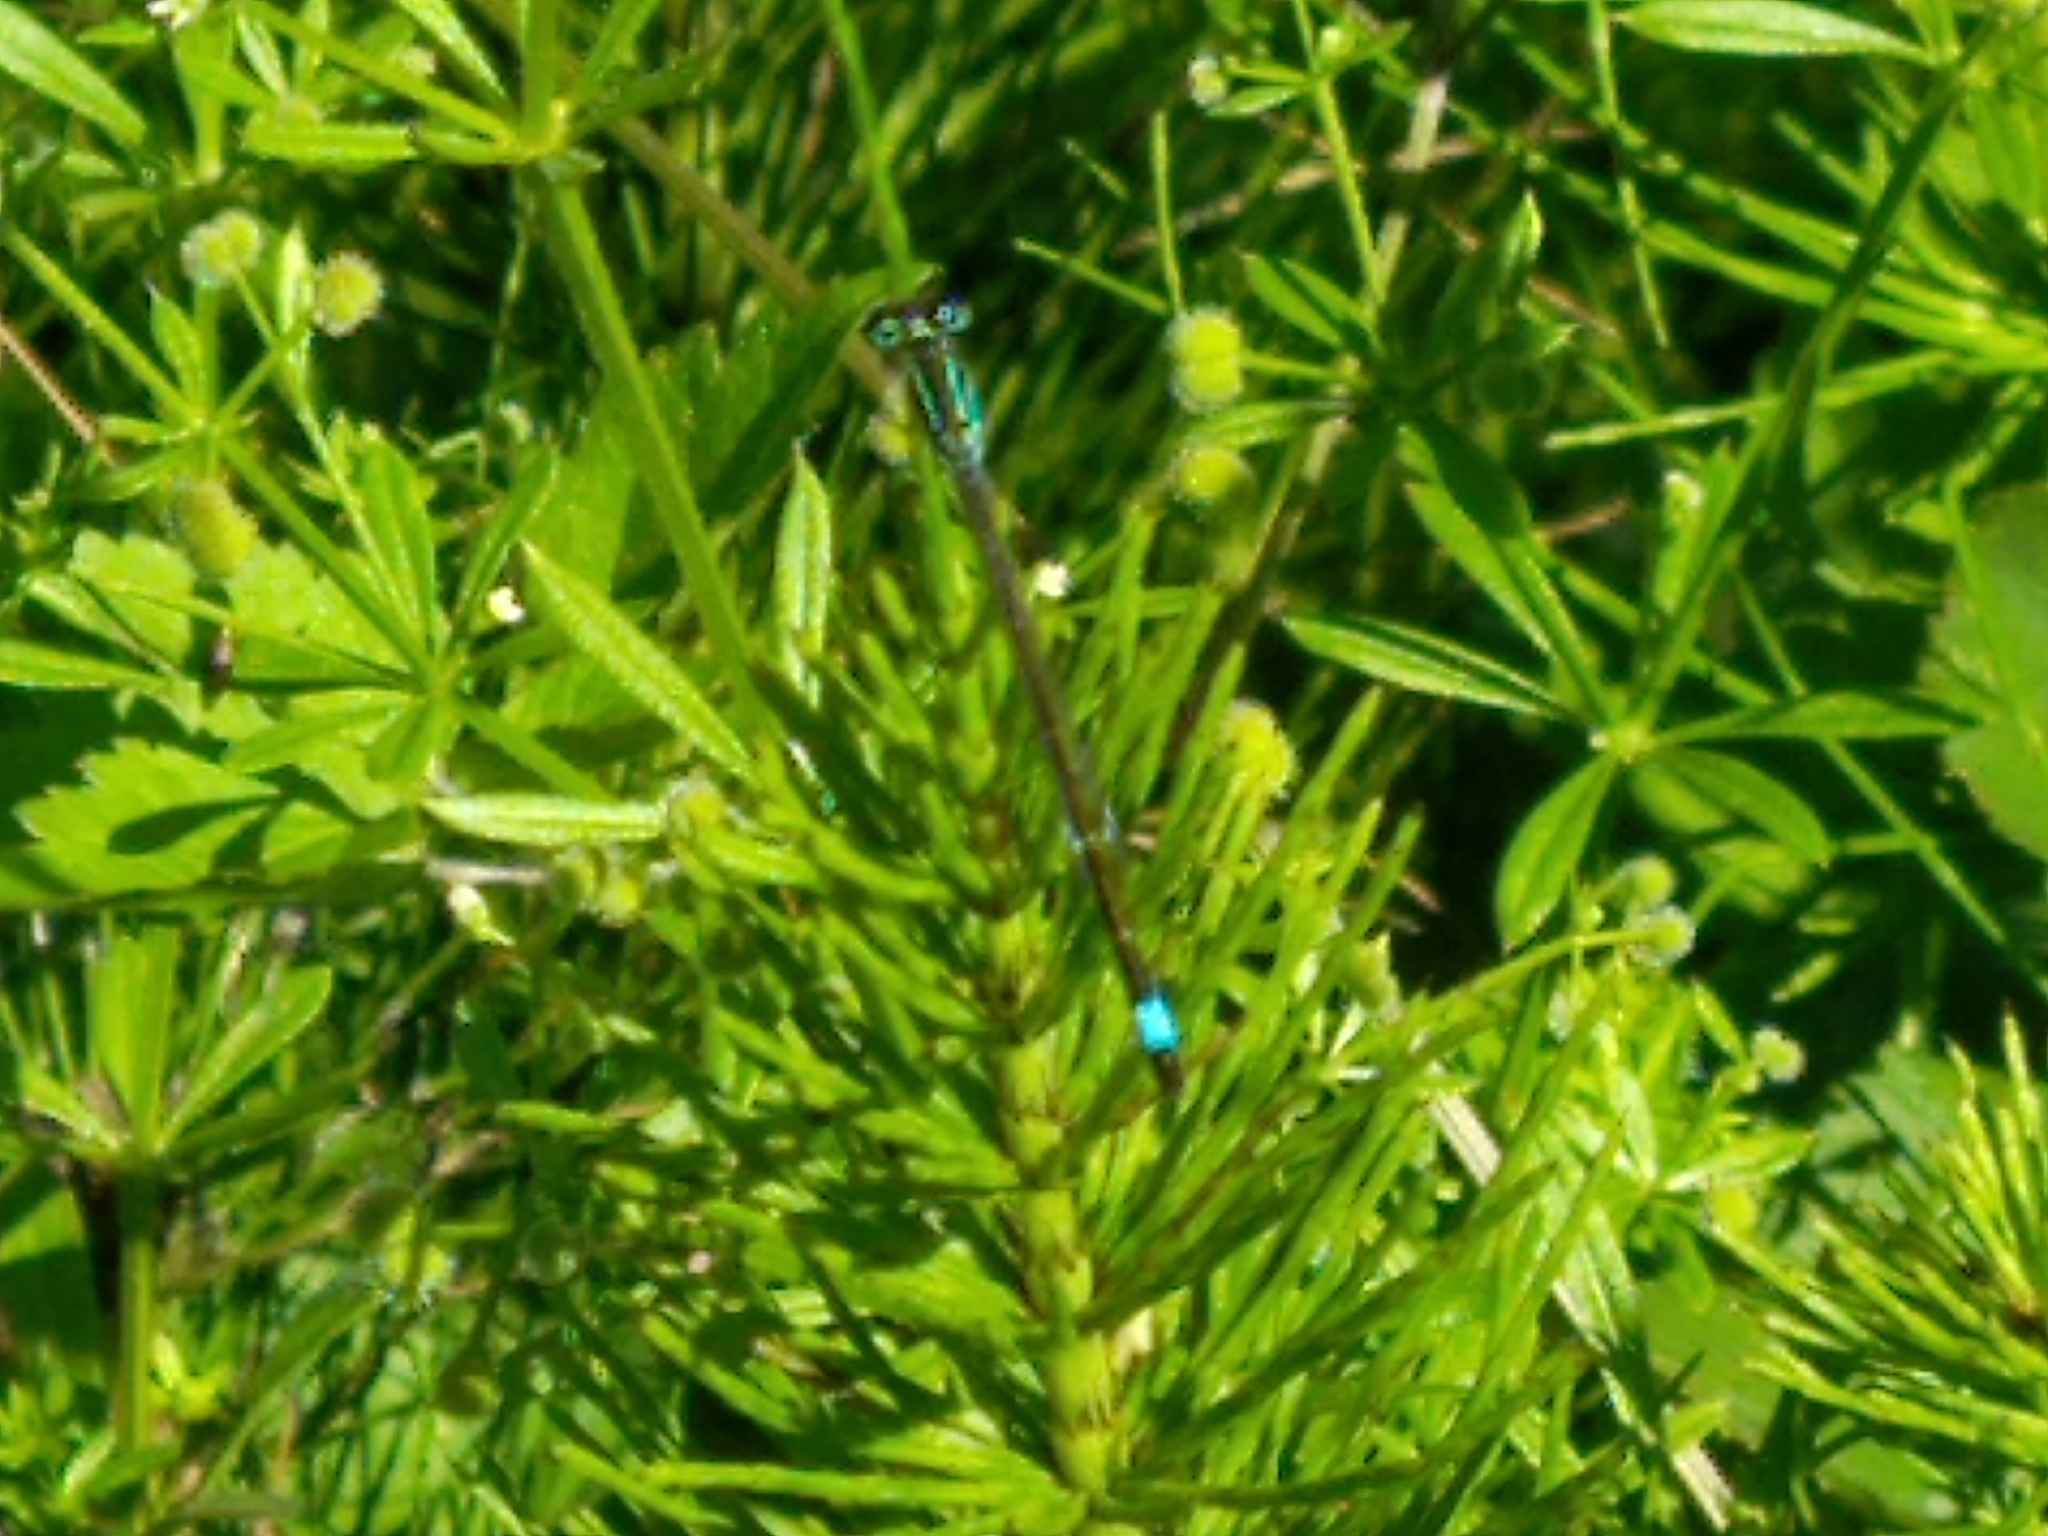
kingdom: Animalia
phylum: Arthropoda
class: Insecta
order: Odonata
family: Coenagrionidae
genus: Ischnura
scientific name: Ischnura elegans
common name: Blue-tailed damselfly
